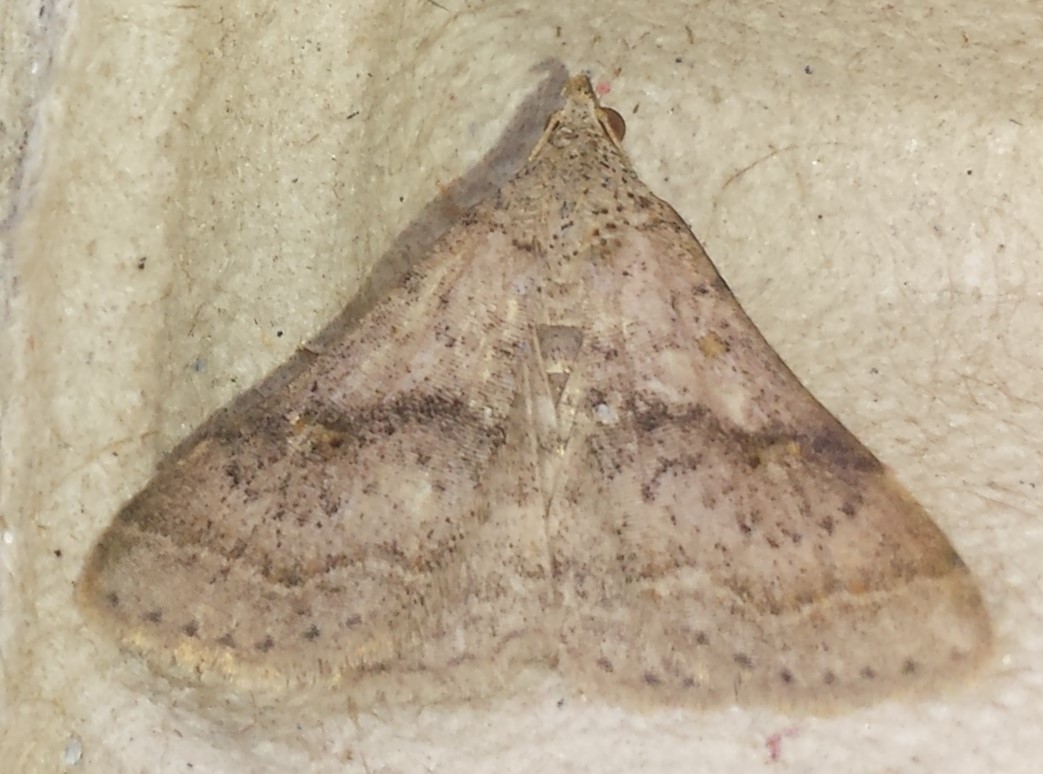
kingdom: Animalia
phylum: Arthropoda
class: Insecta
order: Lepidoptera
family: Erebidae
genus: Bleptina
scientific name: Bleptina caradrinalis
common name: Bent-winged owlet
